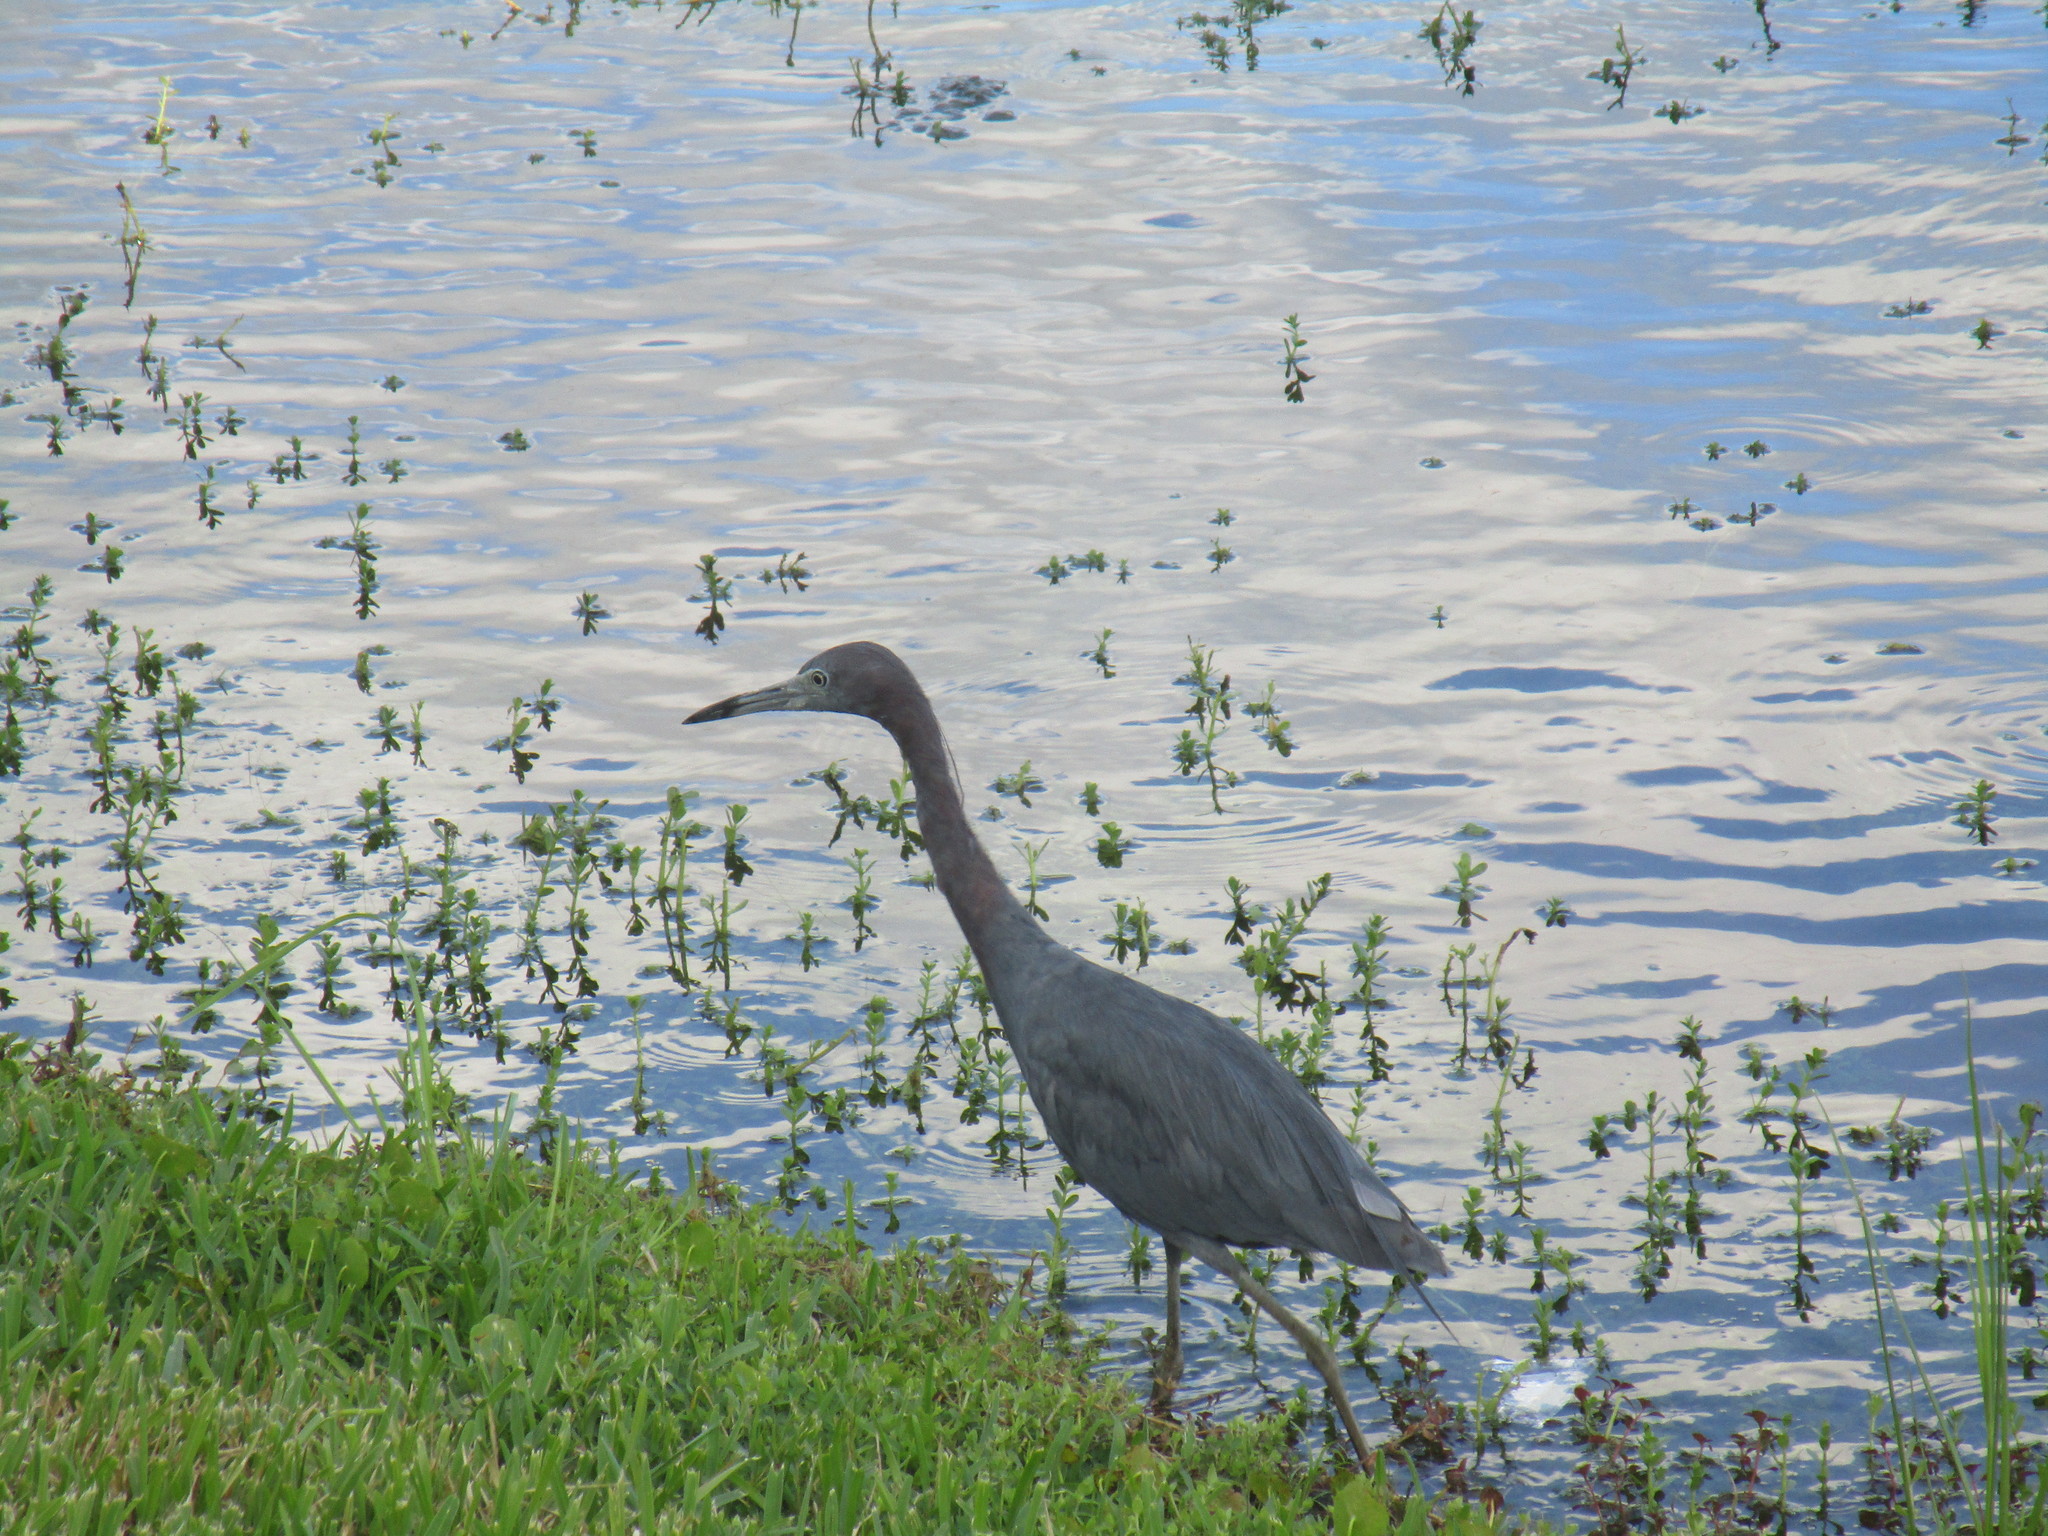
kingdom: Animalia
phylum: Chordata
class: Aves
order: Pelecaniformes
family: Ardeidae
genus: Egretta
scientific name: Egretta caerulea
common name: Little blue heron
